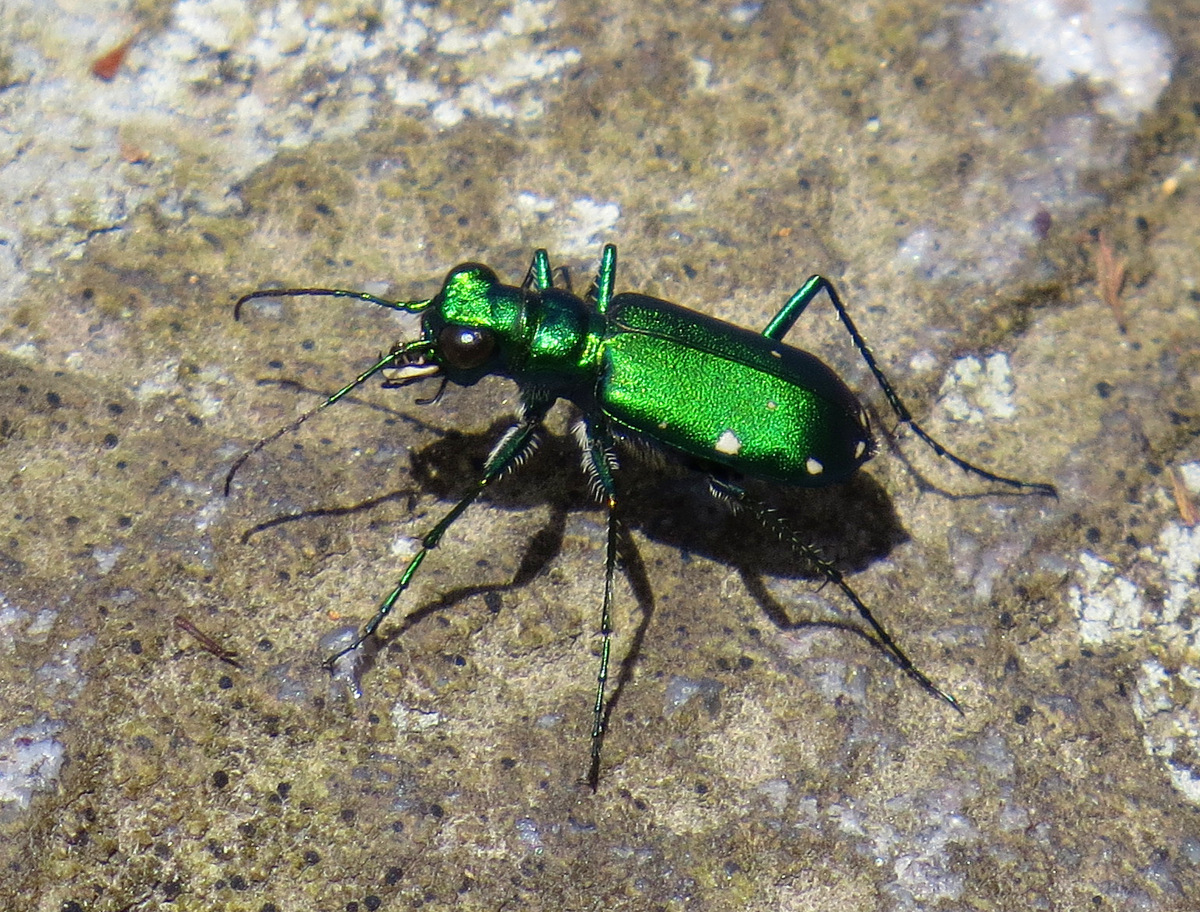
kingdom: Animalia
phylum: Arthropoda
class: Insecta
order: Coleoptera
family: Carabidae
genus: Cicindela
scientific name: Cicindela sexguttata
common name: Six-spotted tiger beetle
